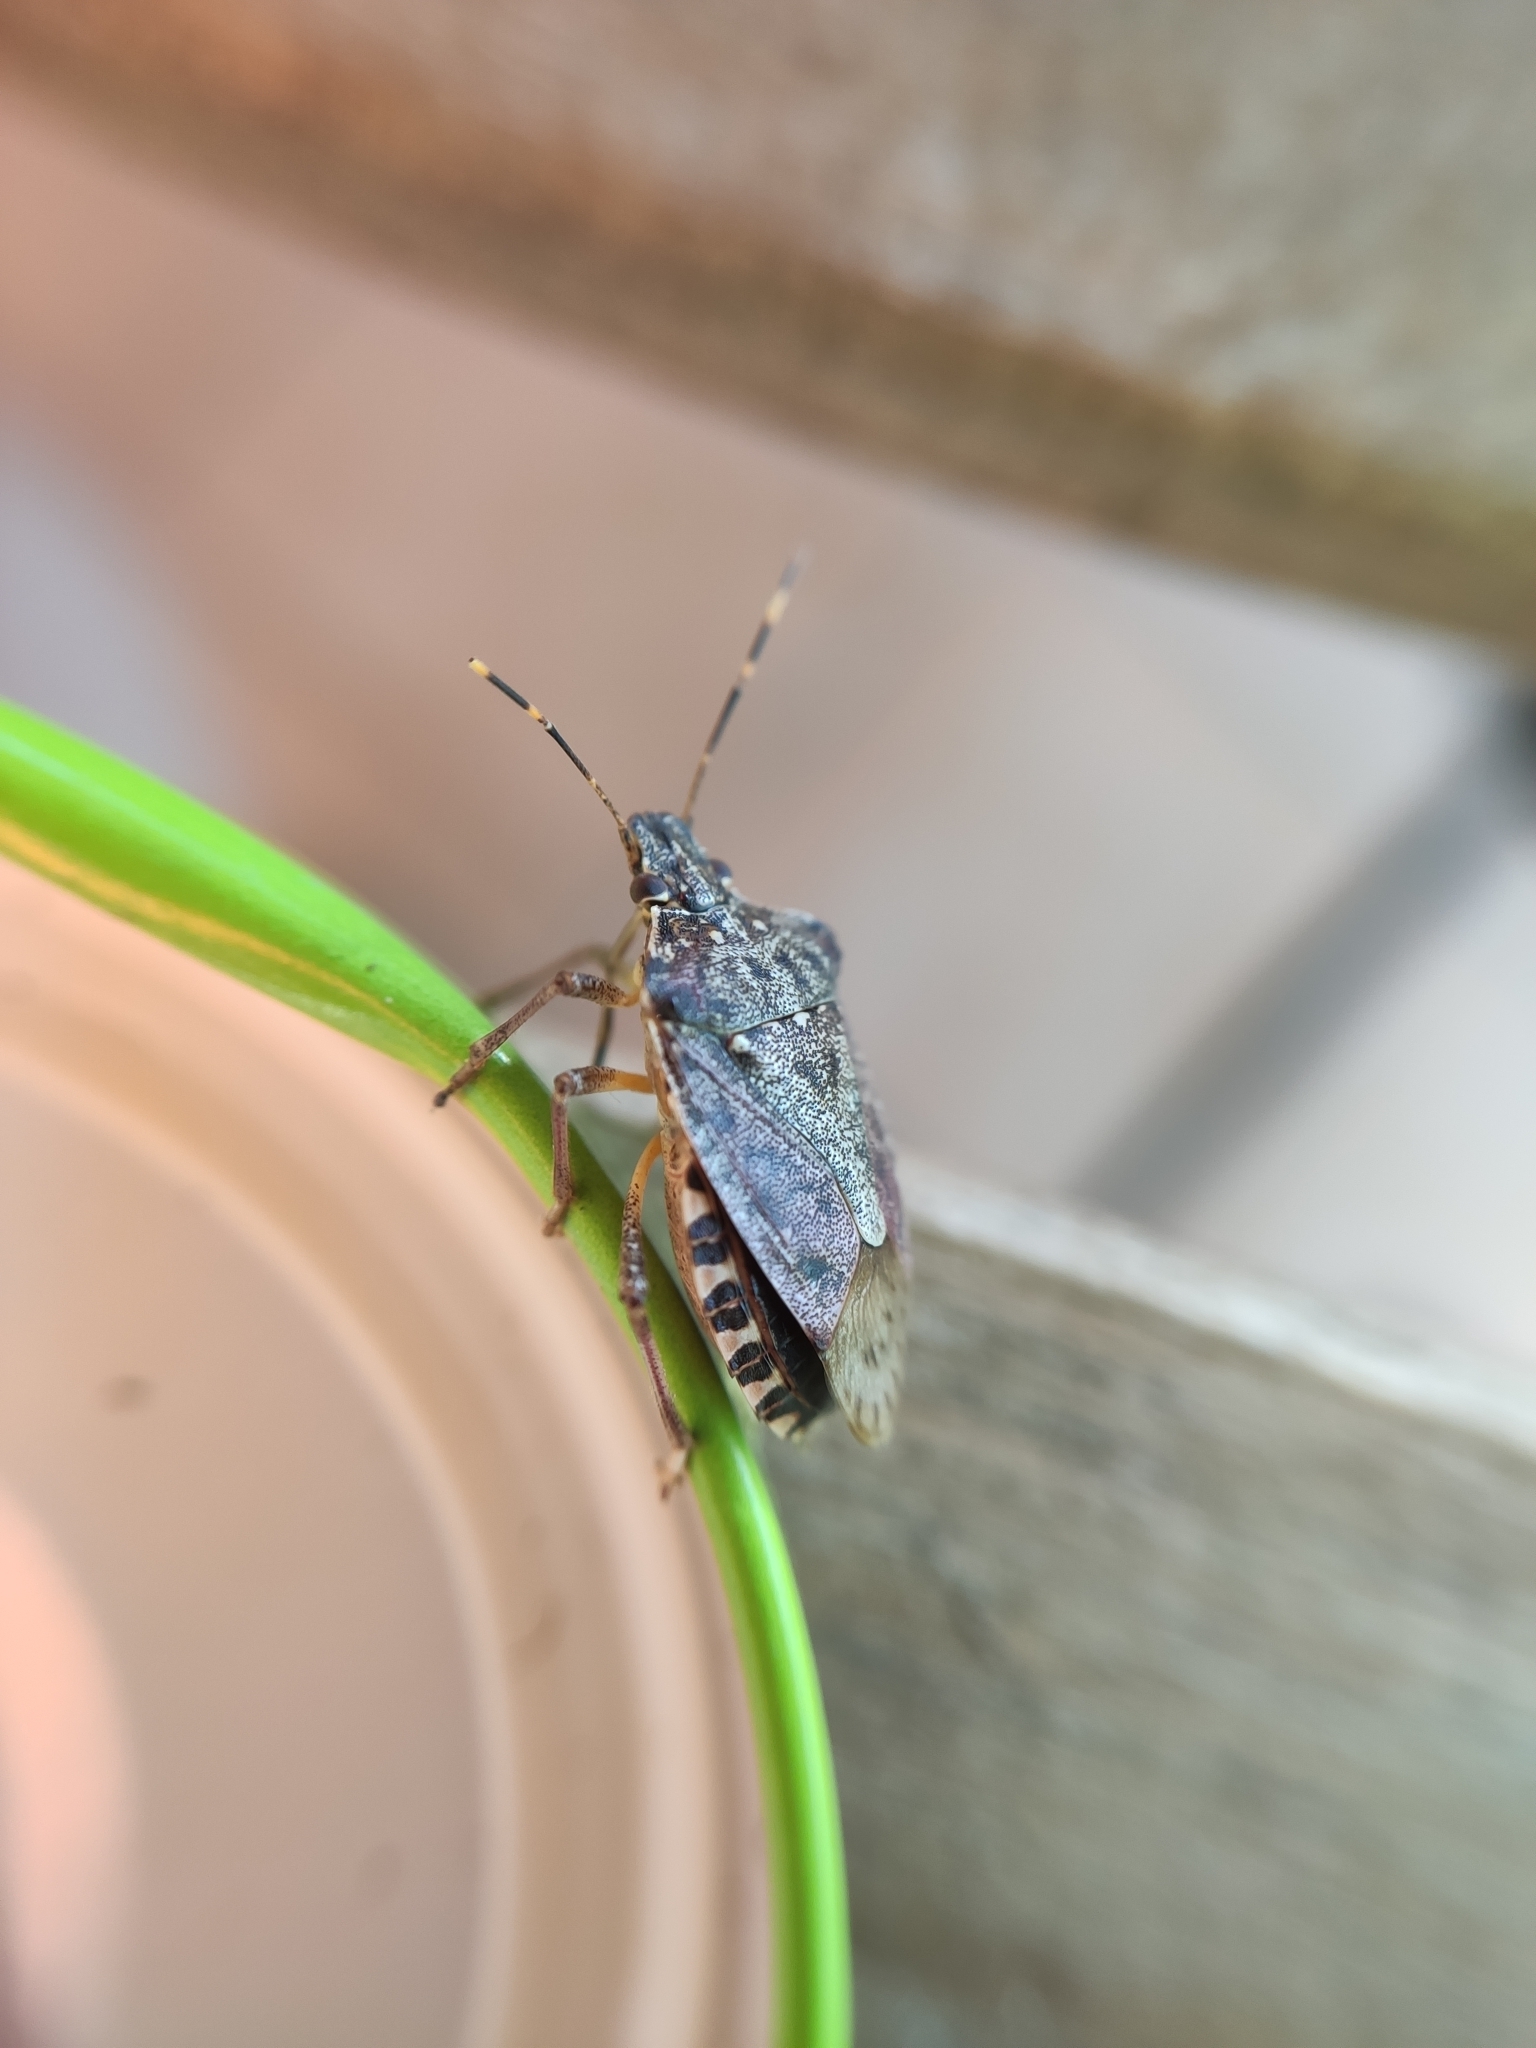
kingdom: Animalia
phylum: Arthropoda
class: Insecta
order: Hemiptera
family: Pentatomidae
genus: Halyomorpha
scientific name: Halyomorpha halys
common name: Brown marmorated stink bug
